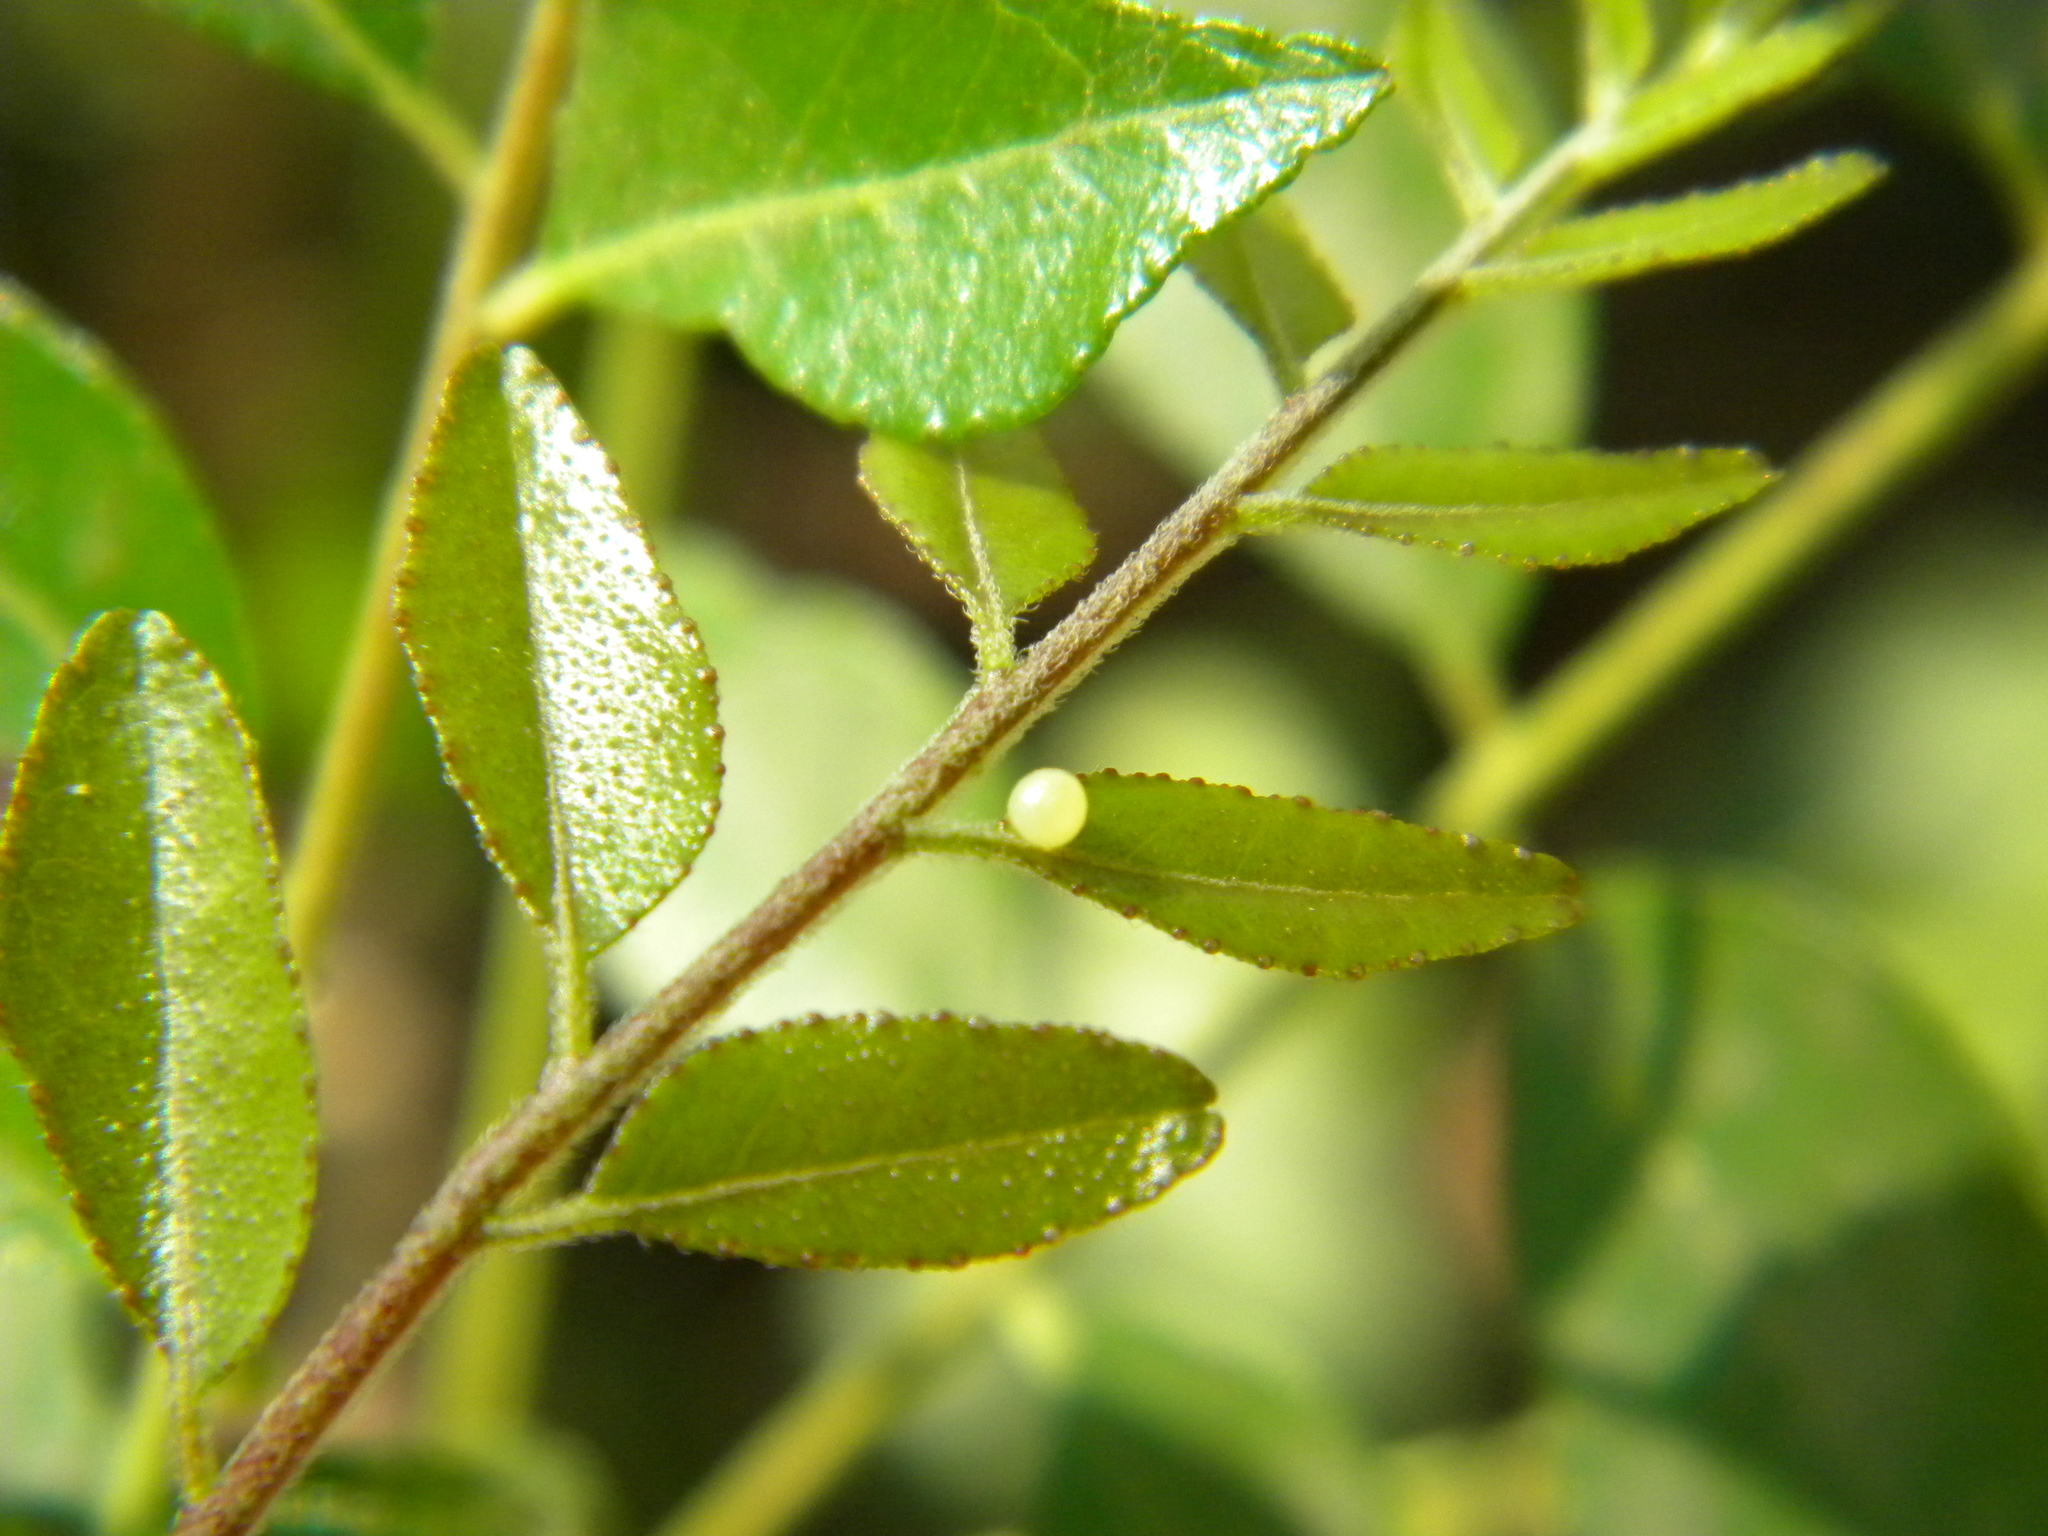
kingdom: Animalia
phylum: Arthropoda
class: Insecta
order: Lepidoptera
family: Papilionidae
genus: Papilio
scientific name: Papilio polytes
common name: Common mormon
